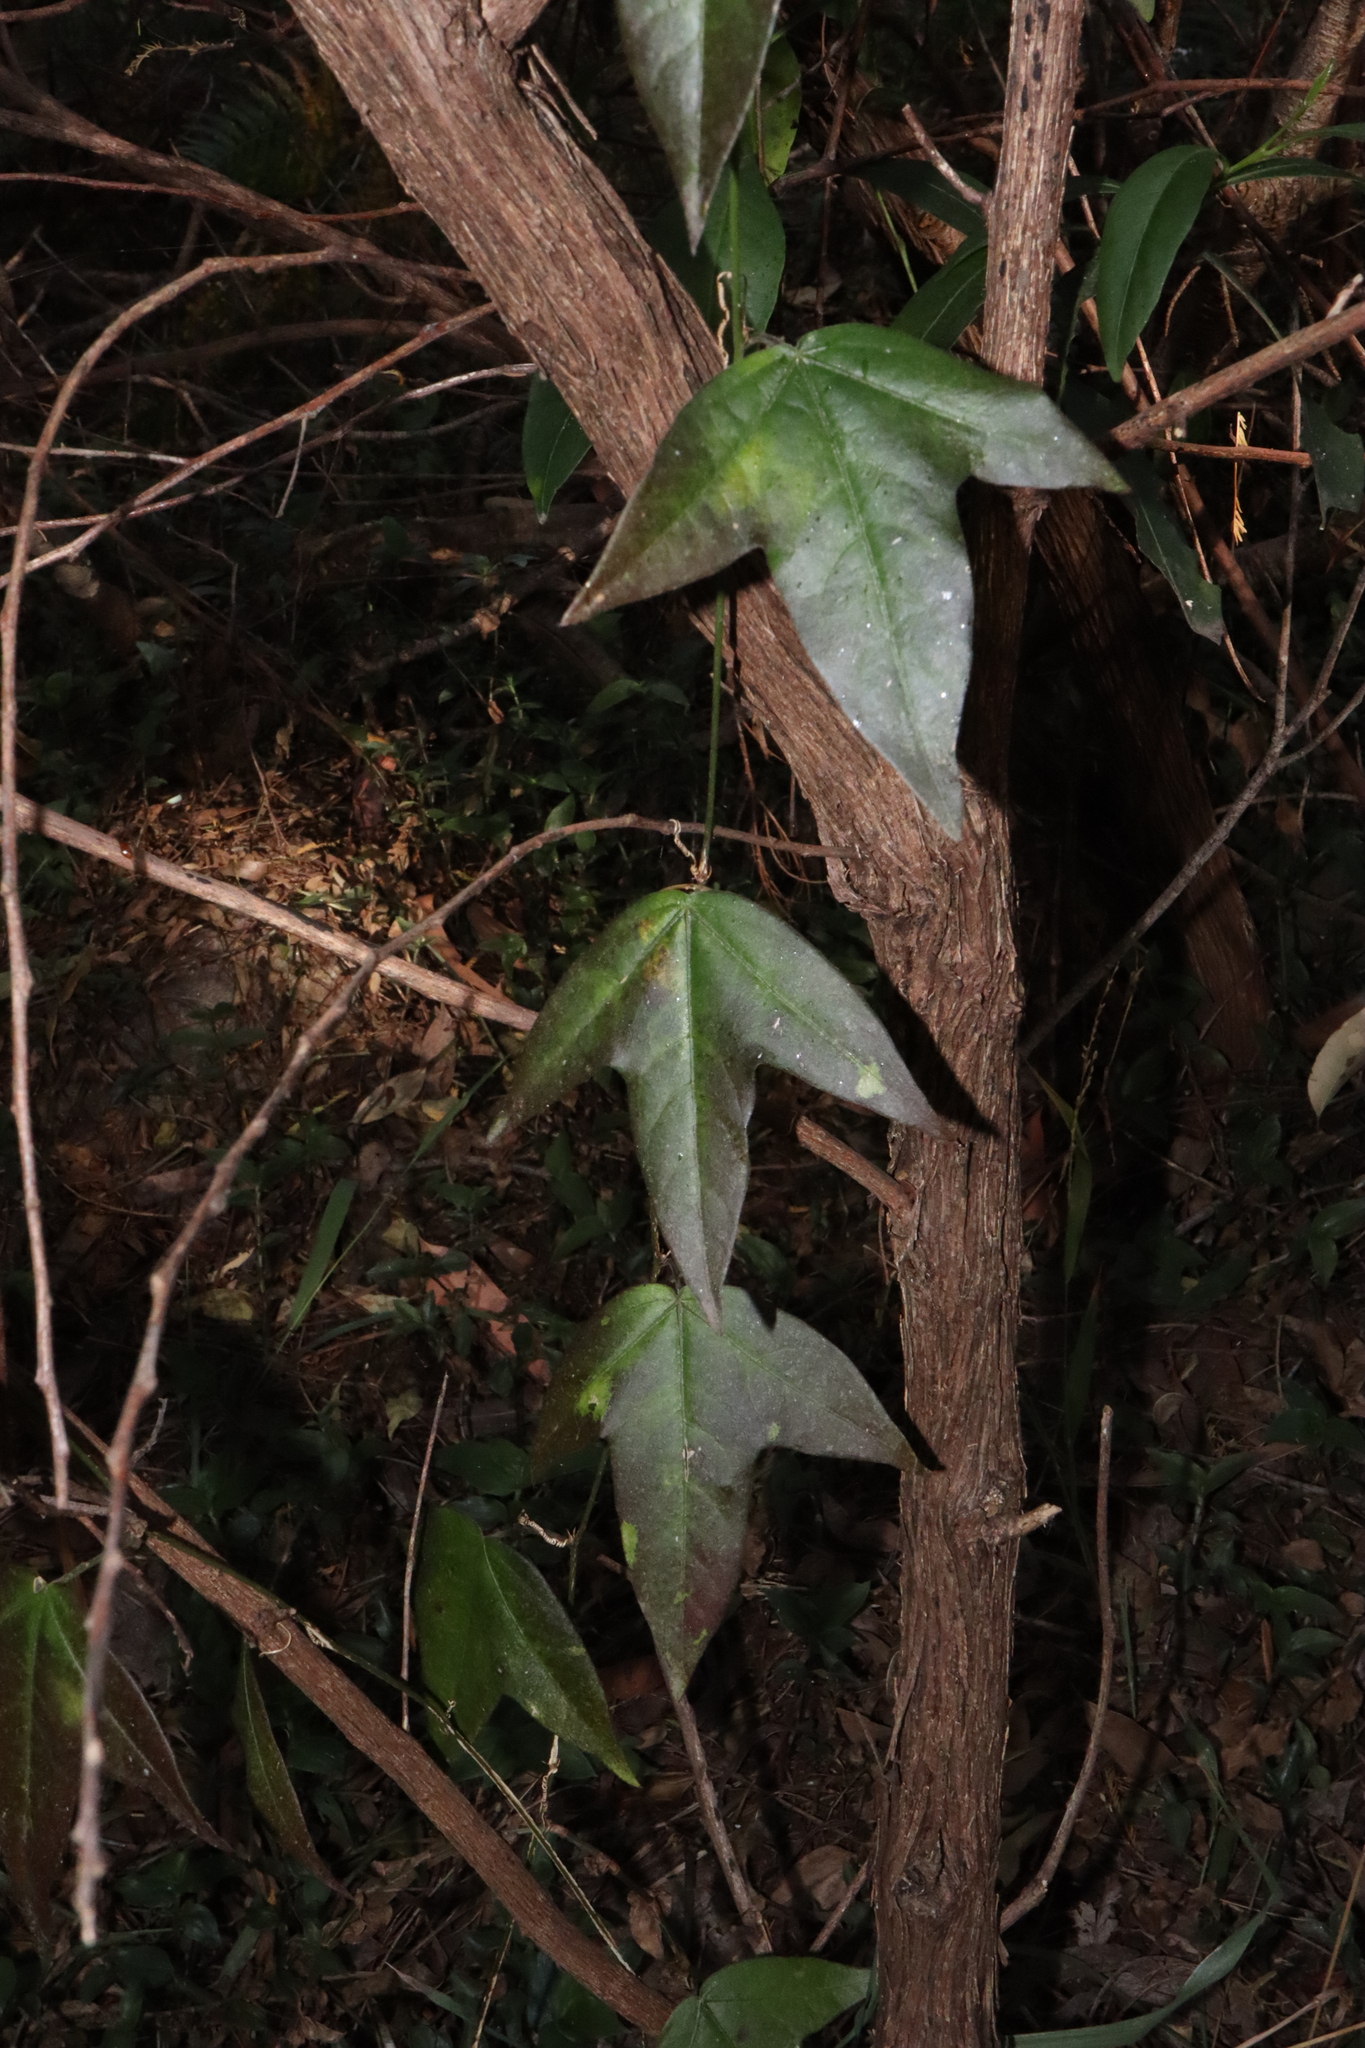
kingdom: Plantae
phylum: Tracheophyta
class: Magnoliopsida
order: Malpighiales
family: Passifloraceae
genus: Passiflora
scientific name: Passiflora suberosa
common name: Wild passionfruit
